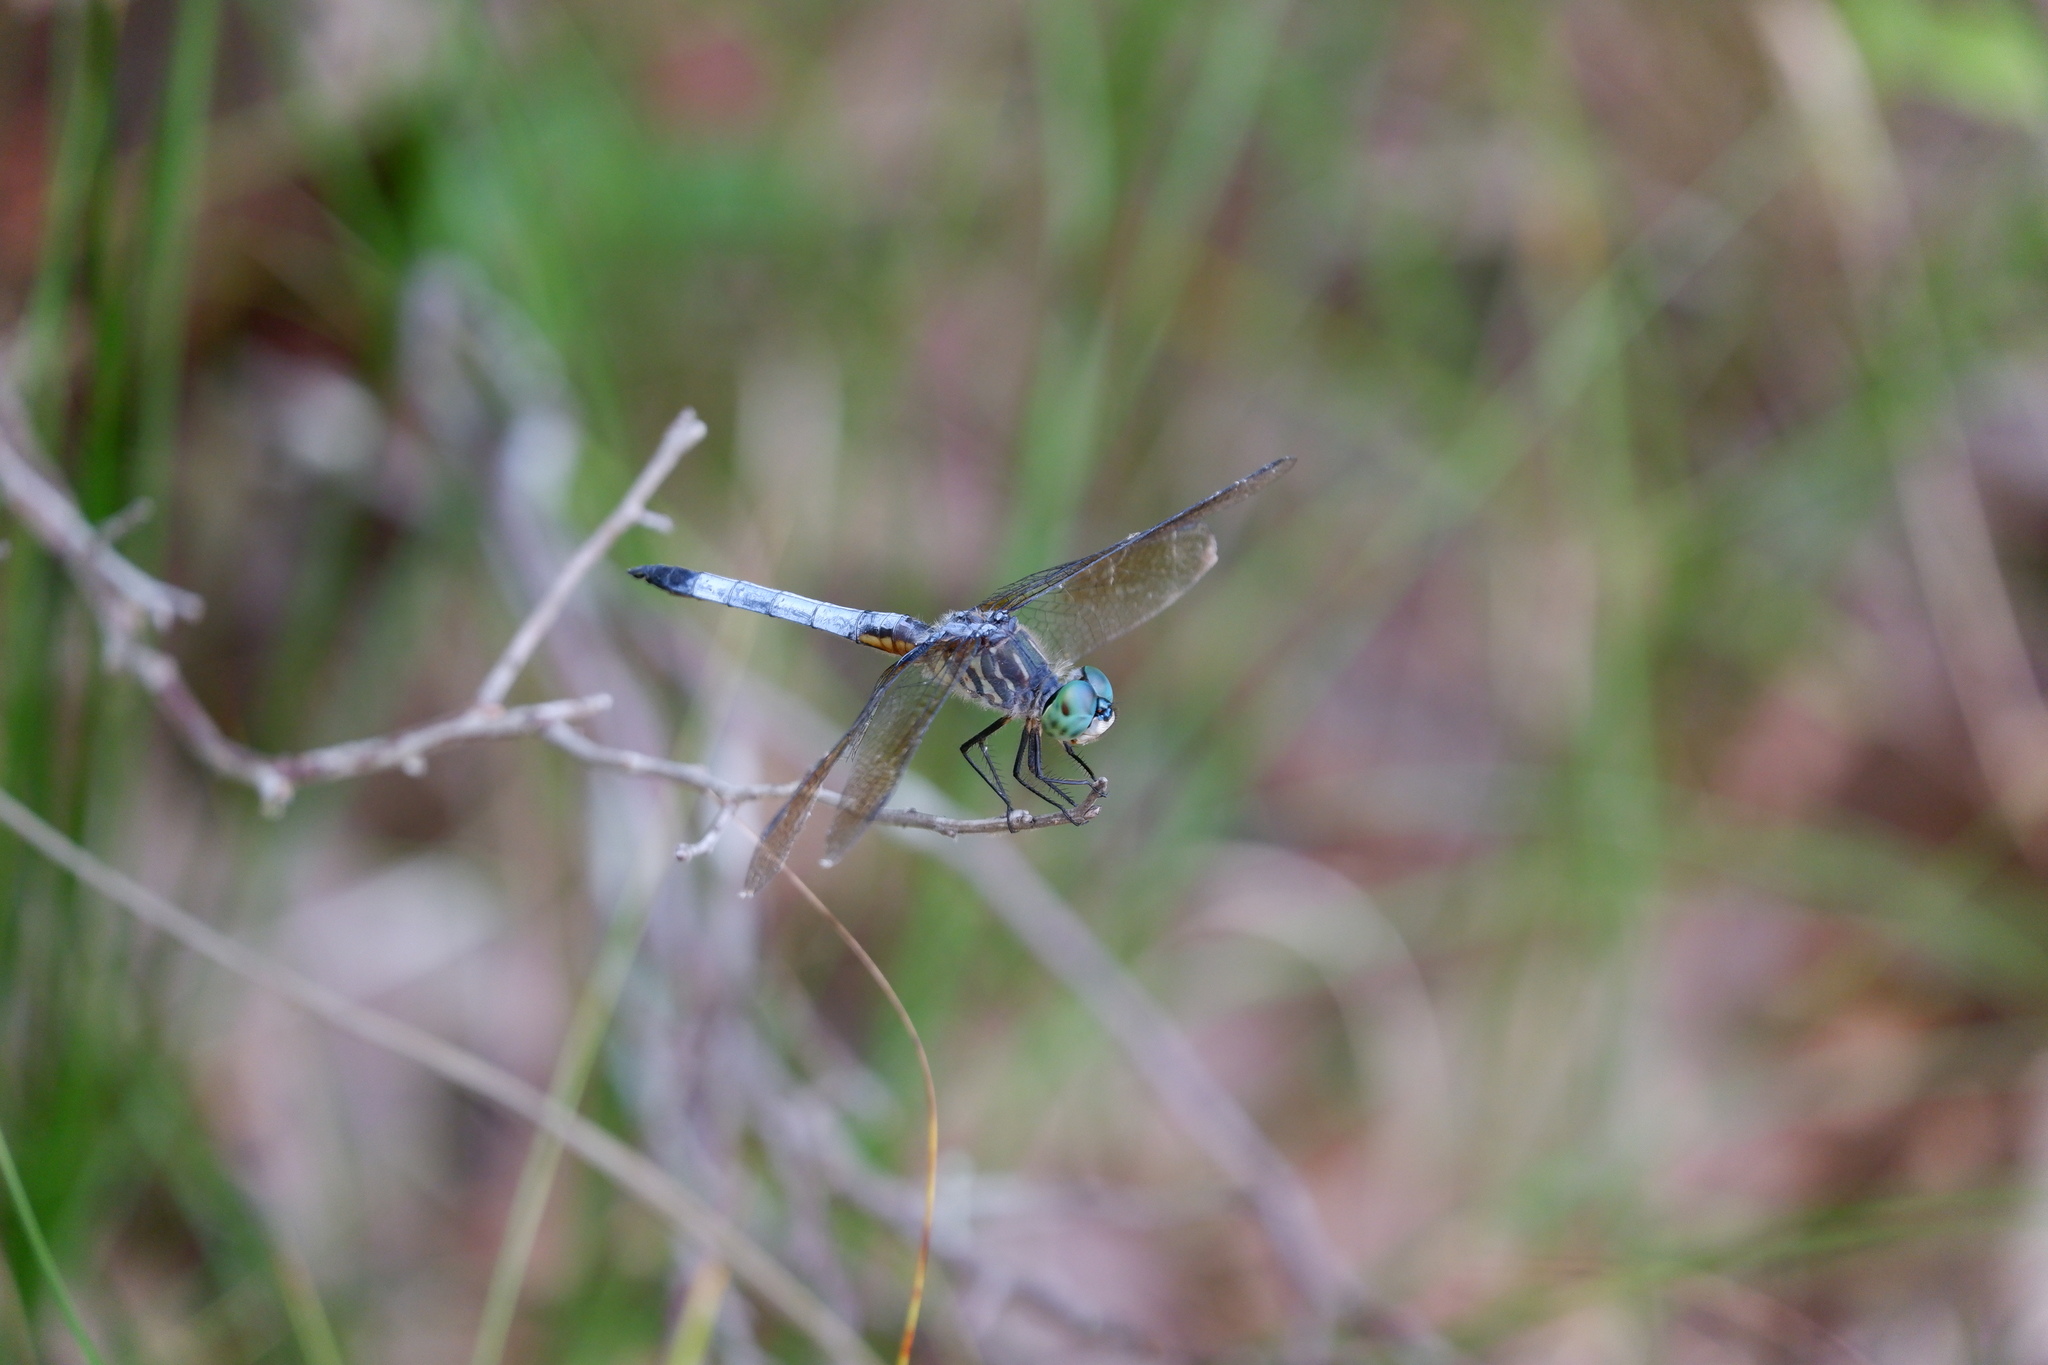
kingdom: Animalia
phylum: Arthropoda
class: Insecta
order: Odonata
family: Libellulidae
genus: Pachydiplax
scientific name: Pachydiplax longipennis
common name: Blue dasher
